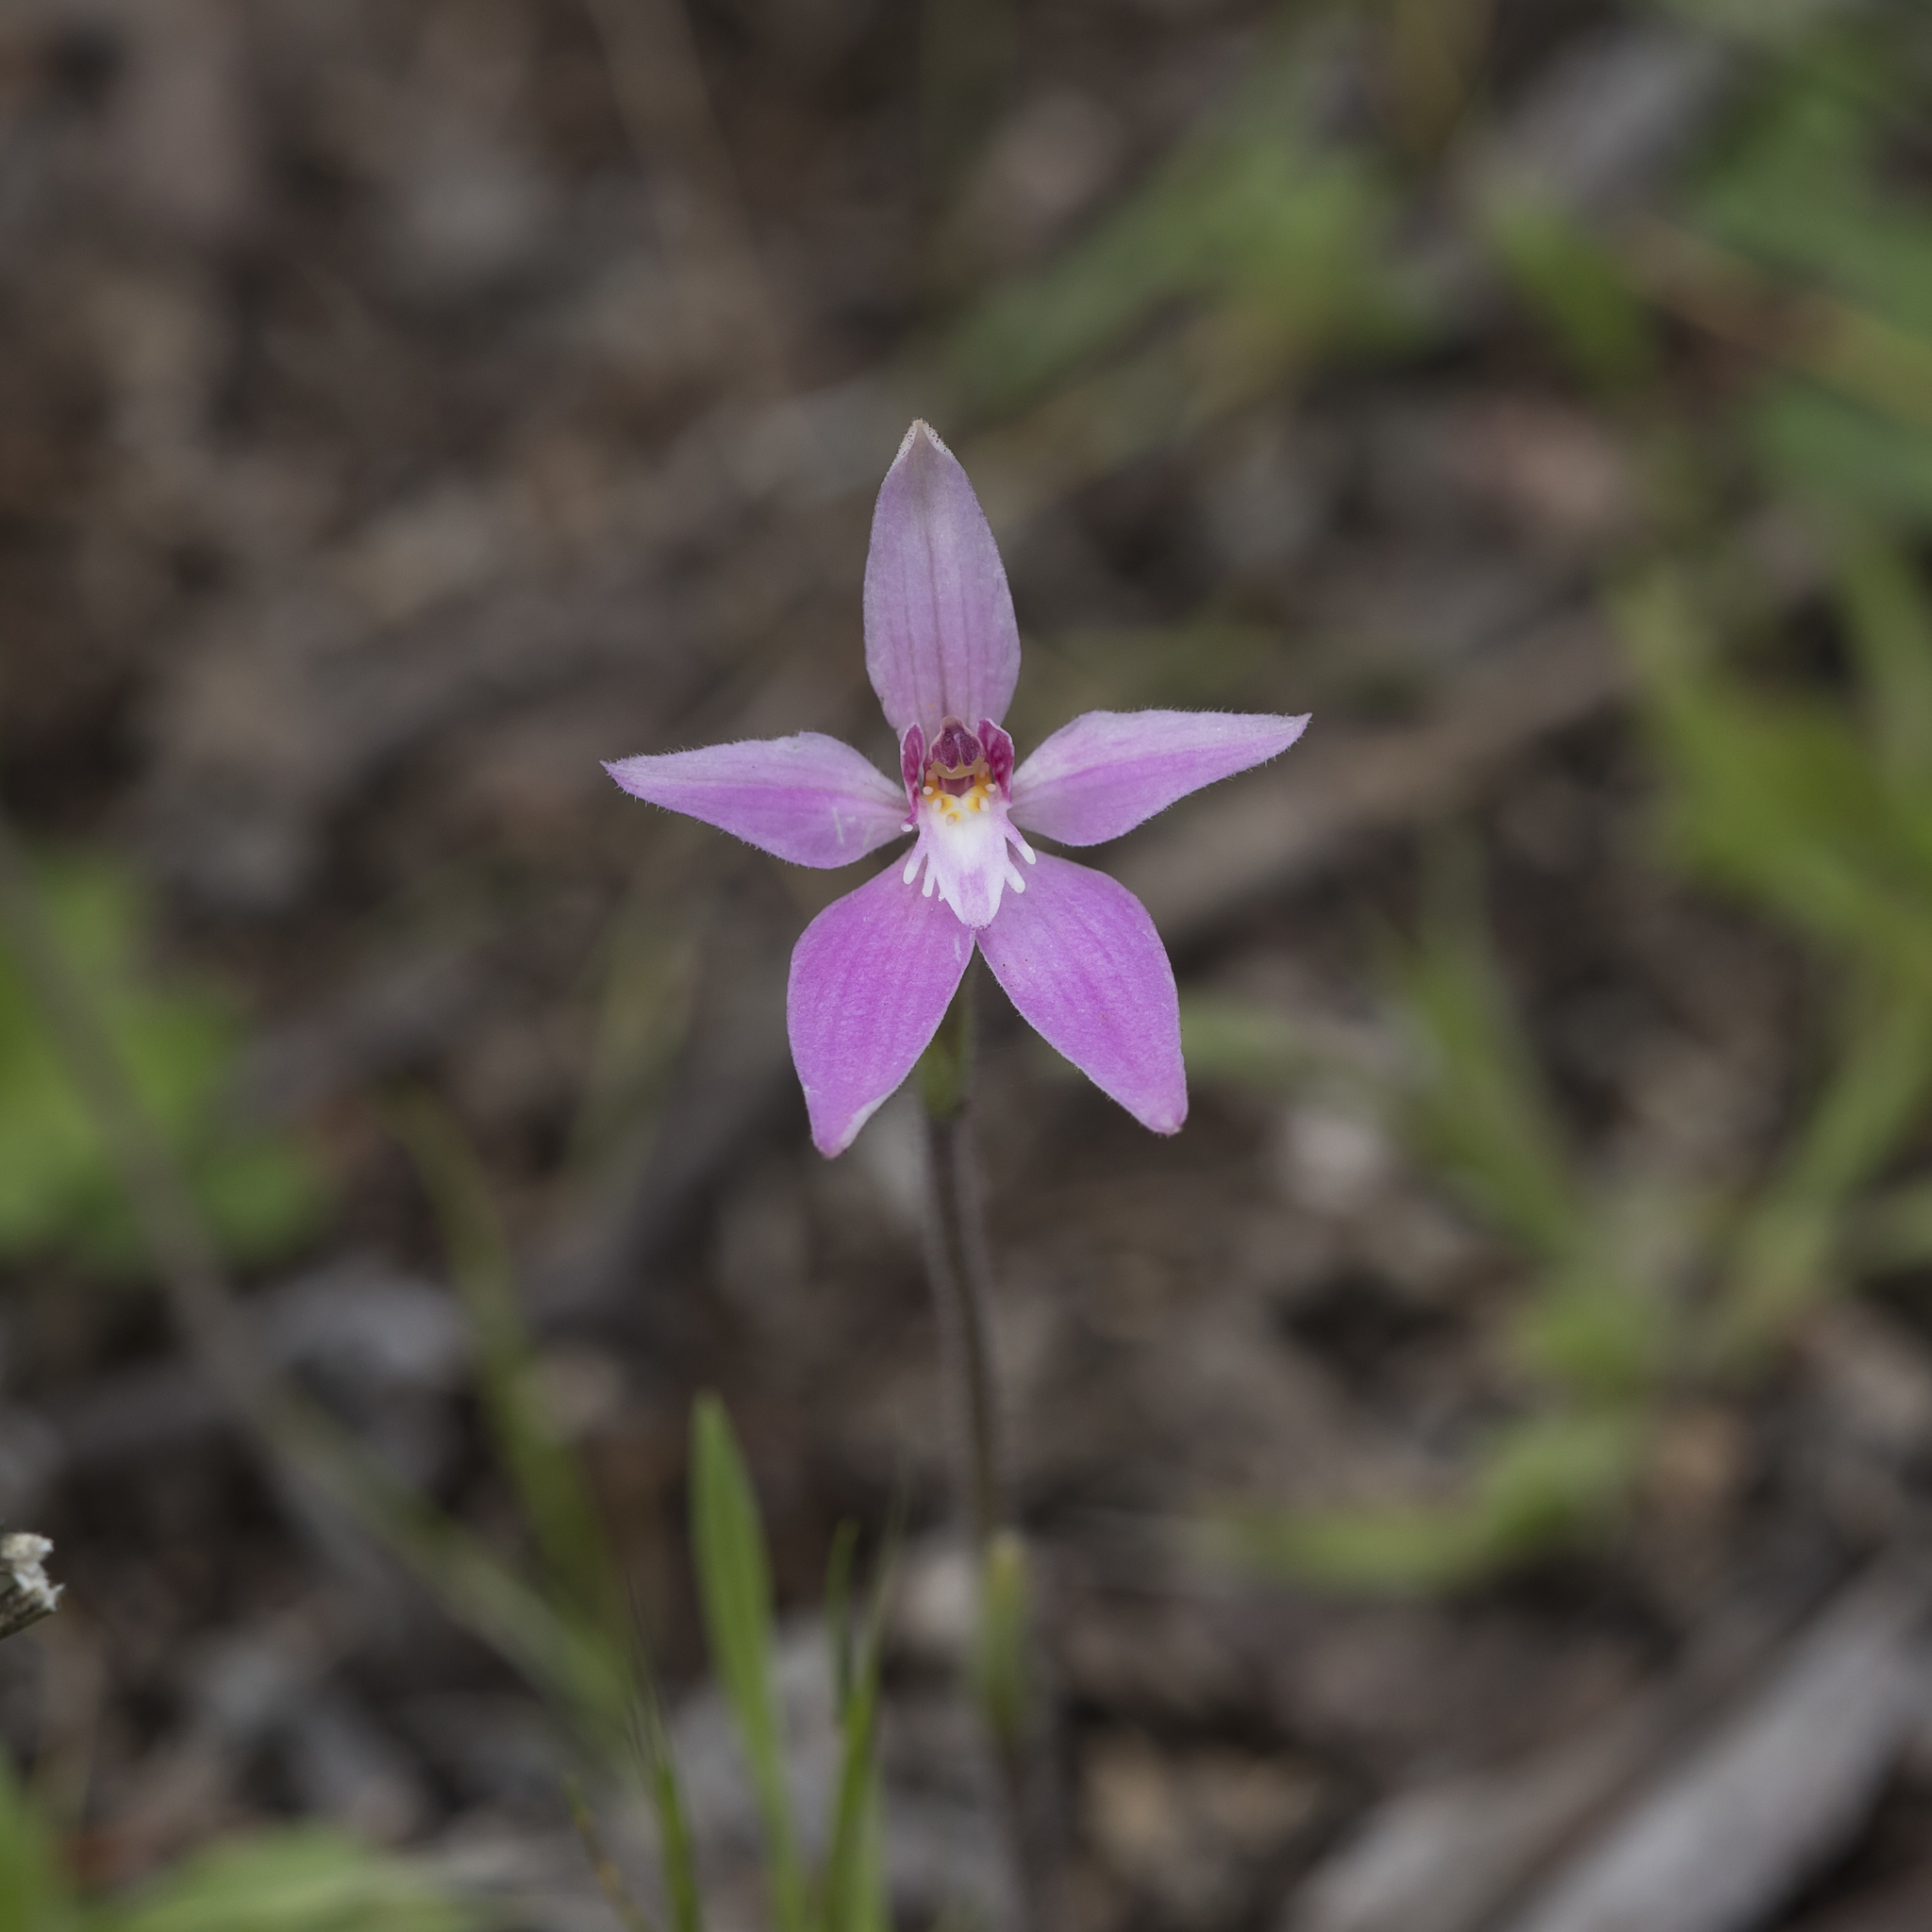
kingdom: Plantae
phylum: Tracheophyta
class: Liliopsida
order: Asparagales
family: Orchidaceae
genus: Caladenia
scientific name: Caladenia latifolia
